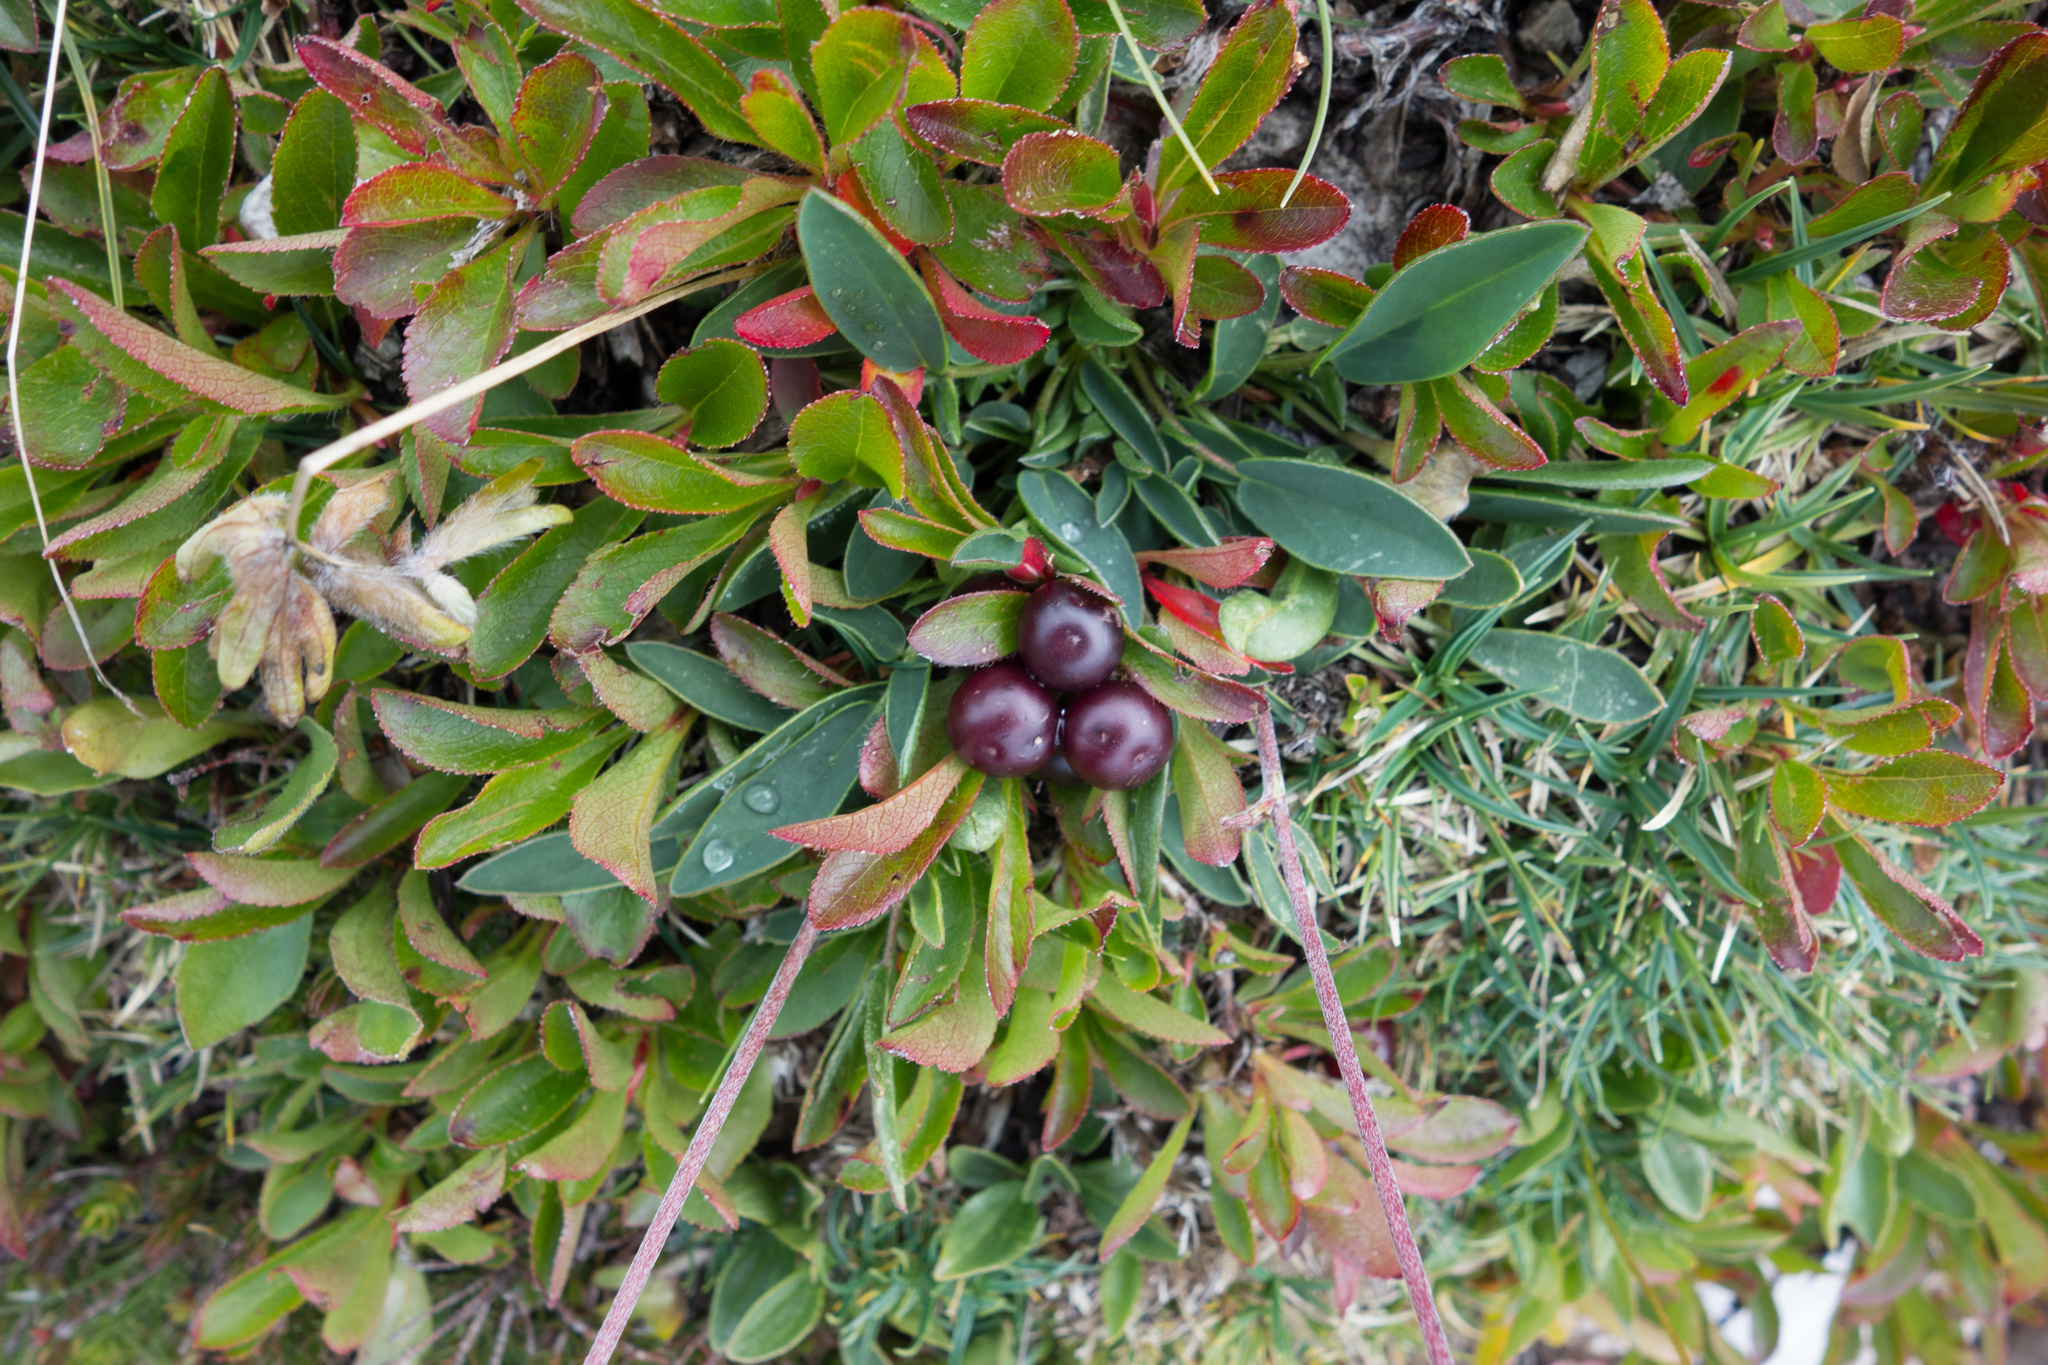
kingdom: Plantae
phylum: Tracheophyta
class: Magnoliopsida
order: Ericales
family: Ericaceae
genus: Arctostaphylos
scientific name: Arctostaphylos alpinus
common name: Alpine bearberry
